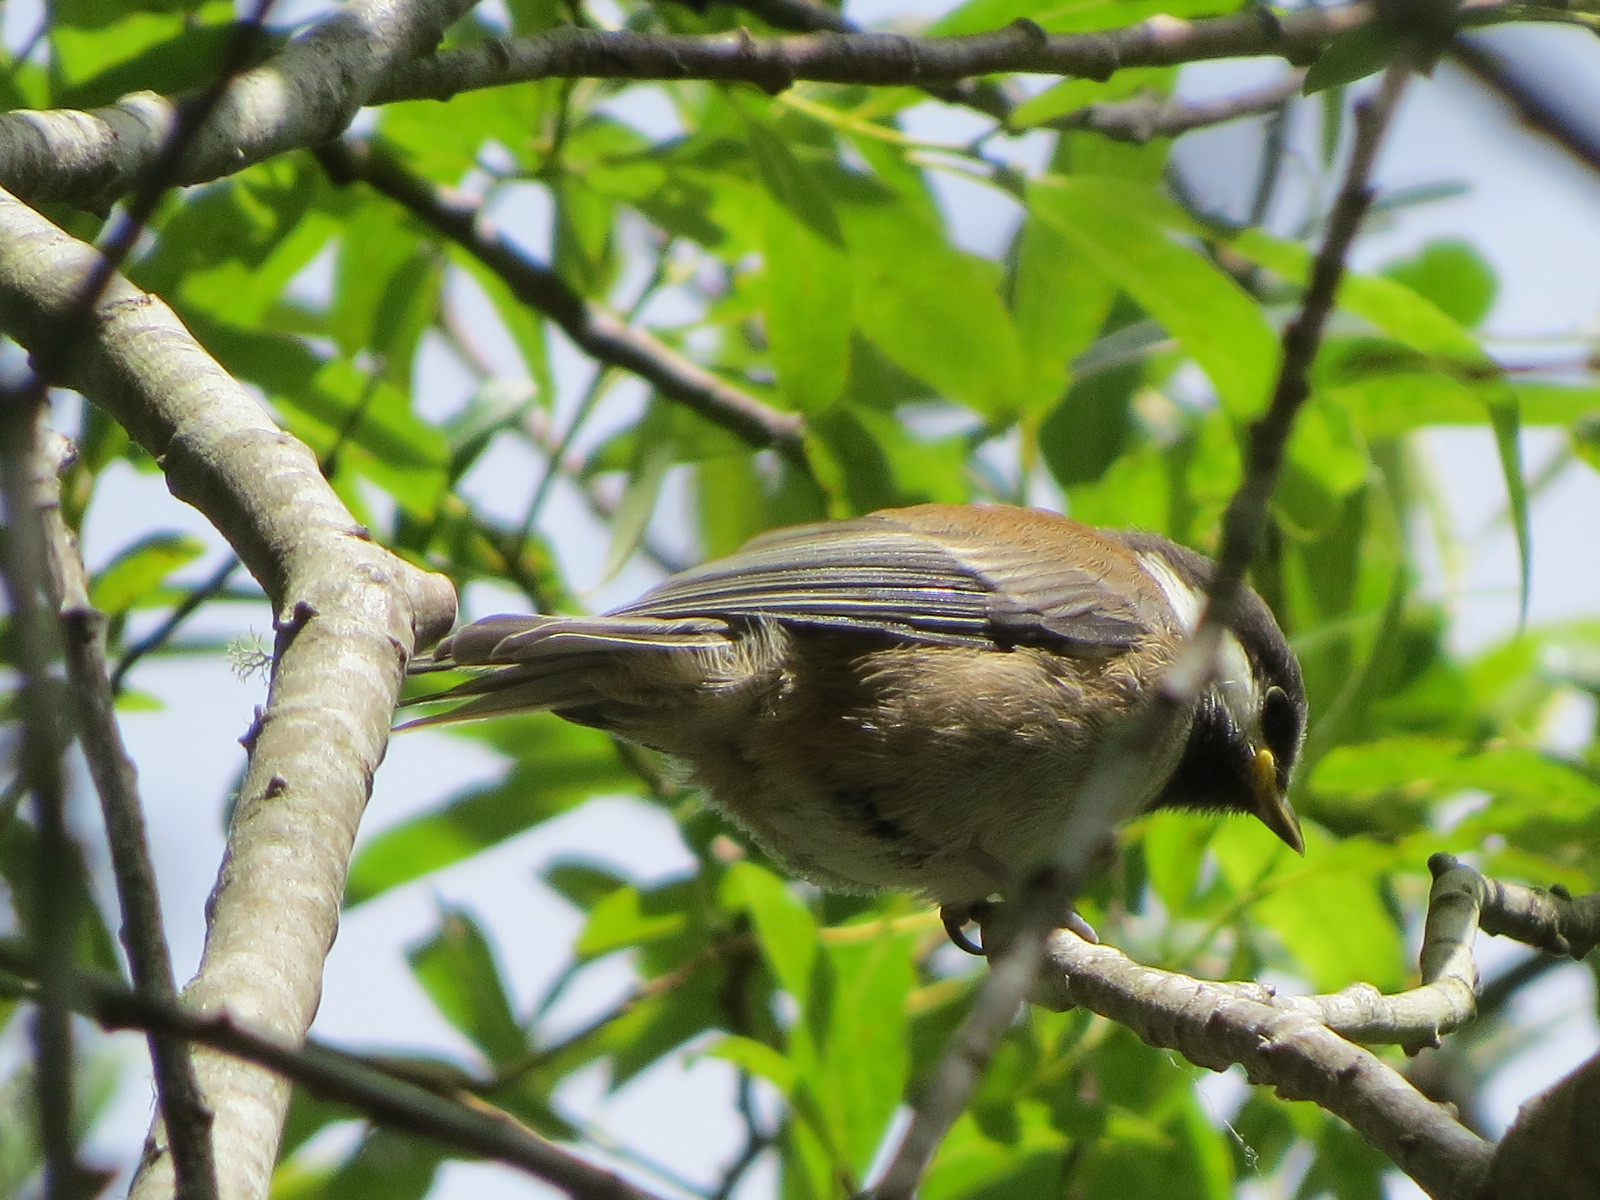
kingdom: Animalia
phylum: Chordata
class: Aves
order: Passeriformes
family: Paridae
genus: Poecile
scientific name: Poecile rufescens
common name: Chestnut-backed chickadee
